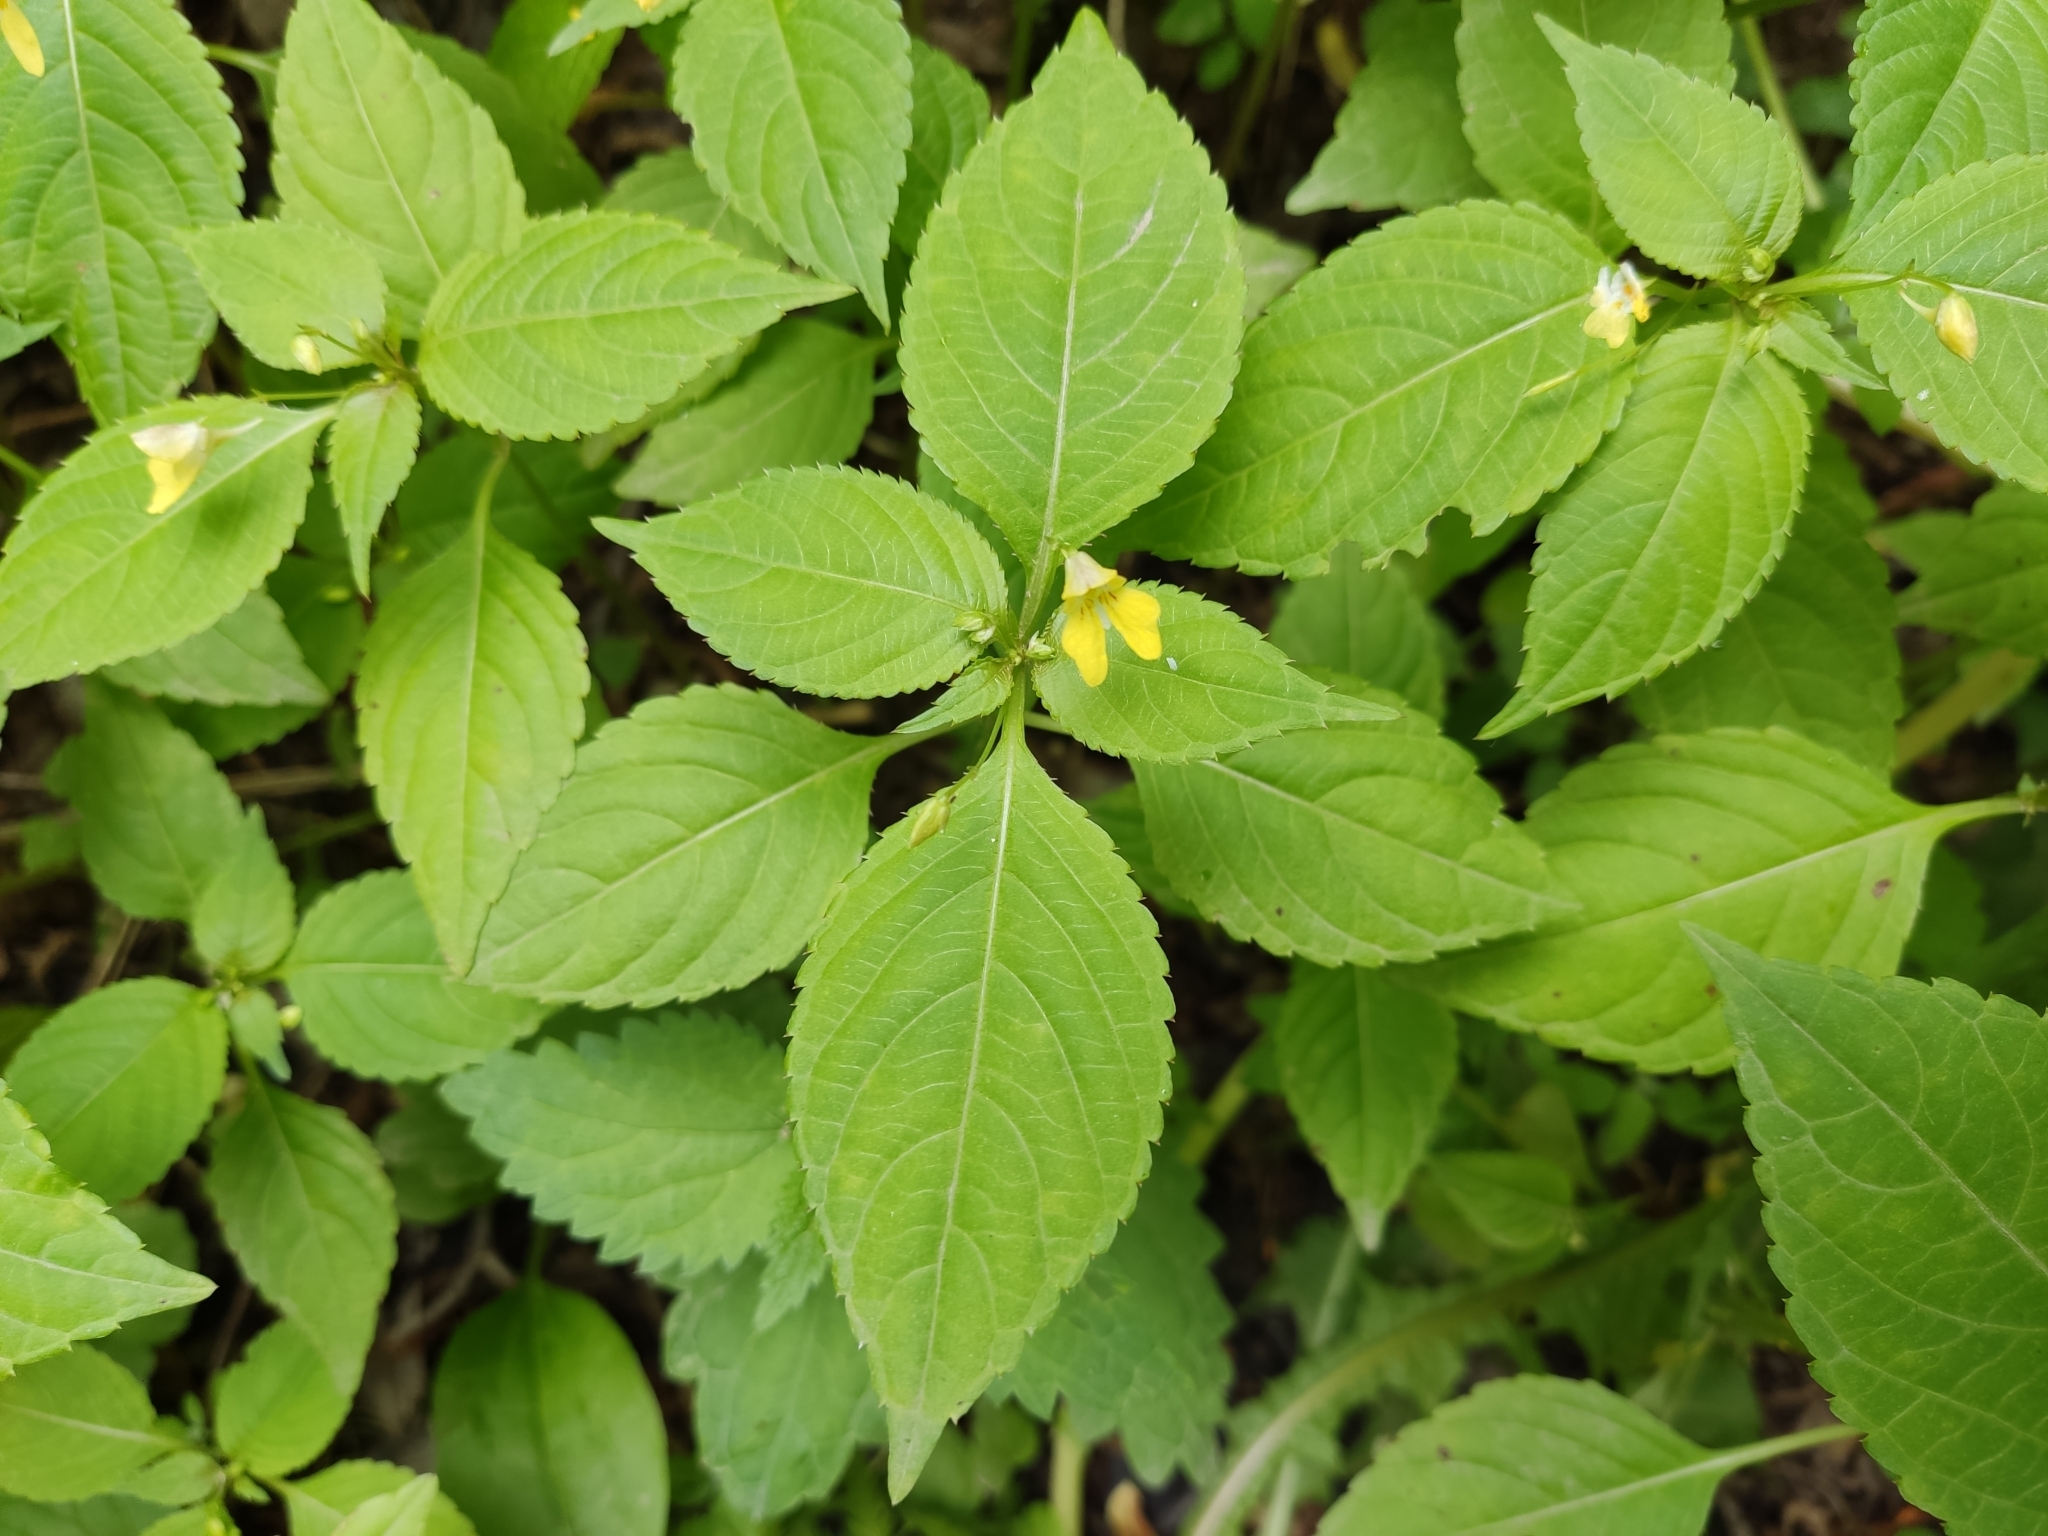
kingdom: Plantae
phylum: Tracheophyta
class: Magnoliopsida
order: Ericales
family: Balsaminaceae
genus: Impatiens
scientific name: Impatiens parviflora
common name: Small balsam
